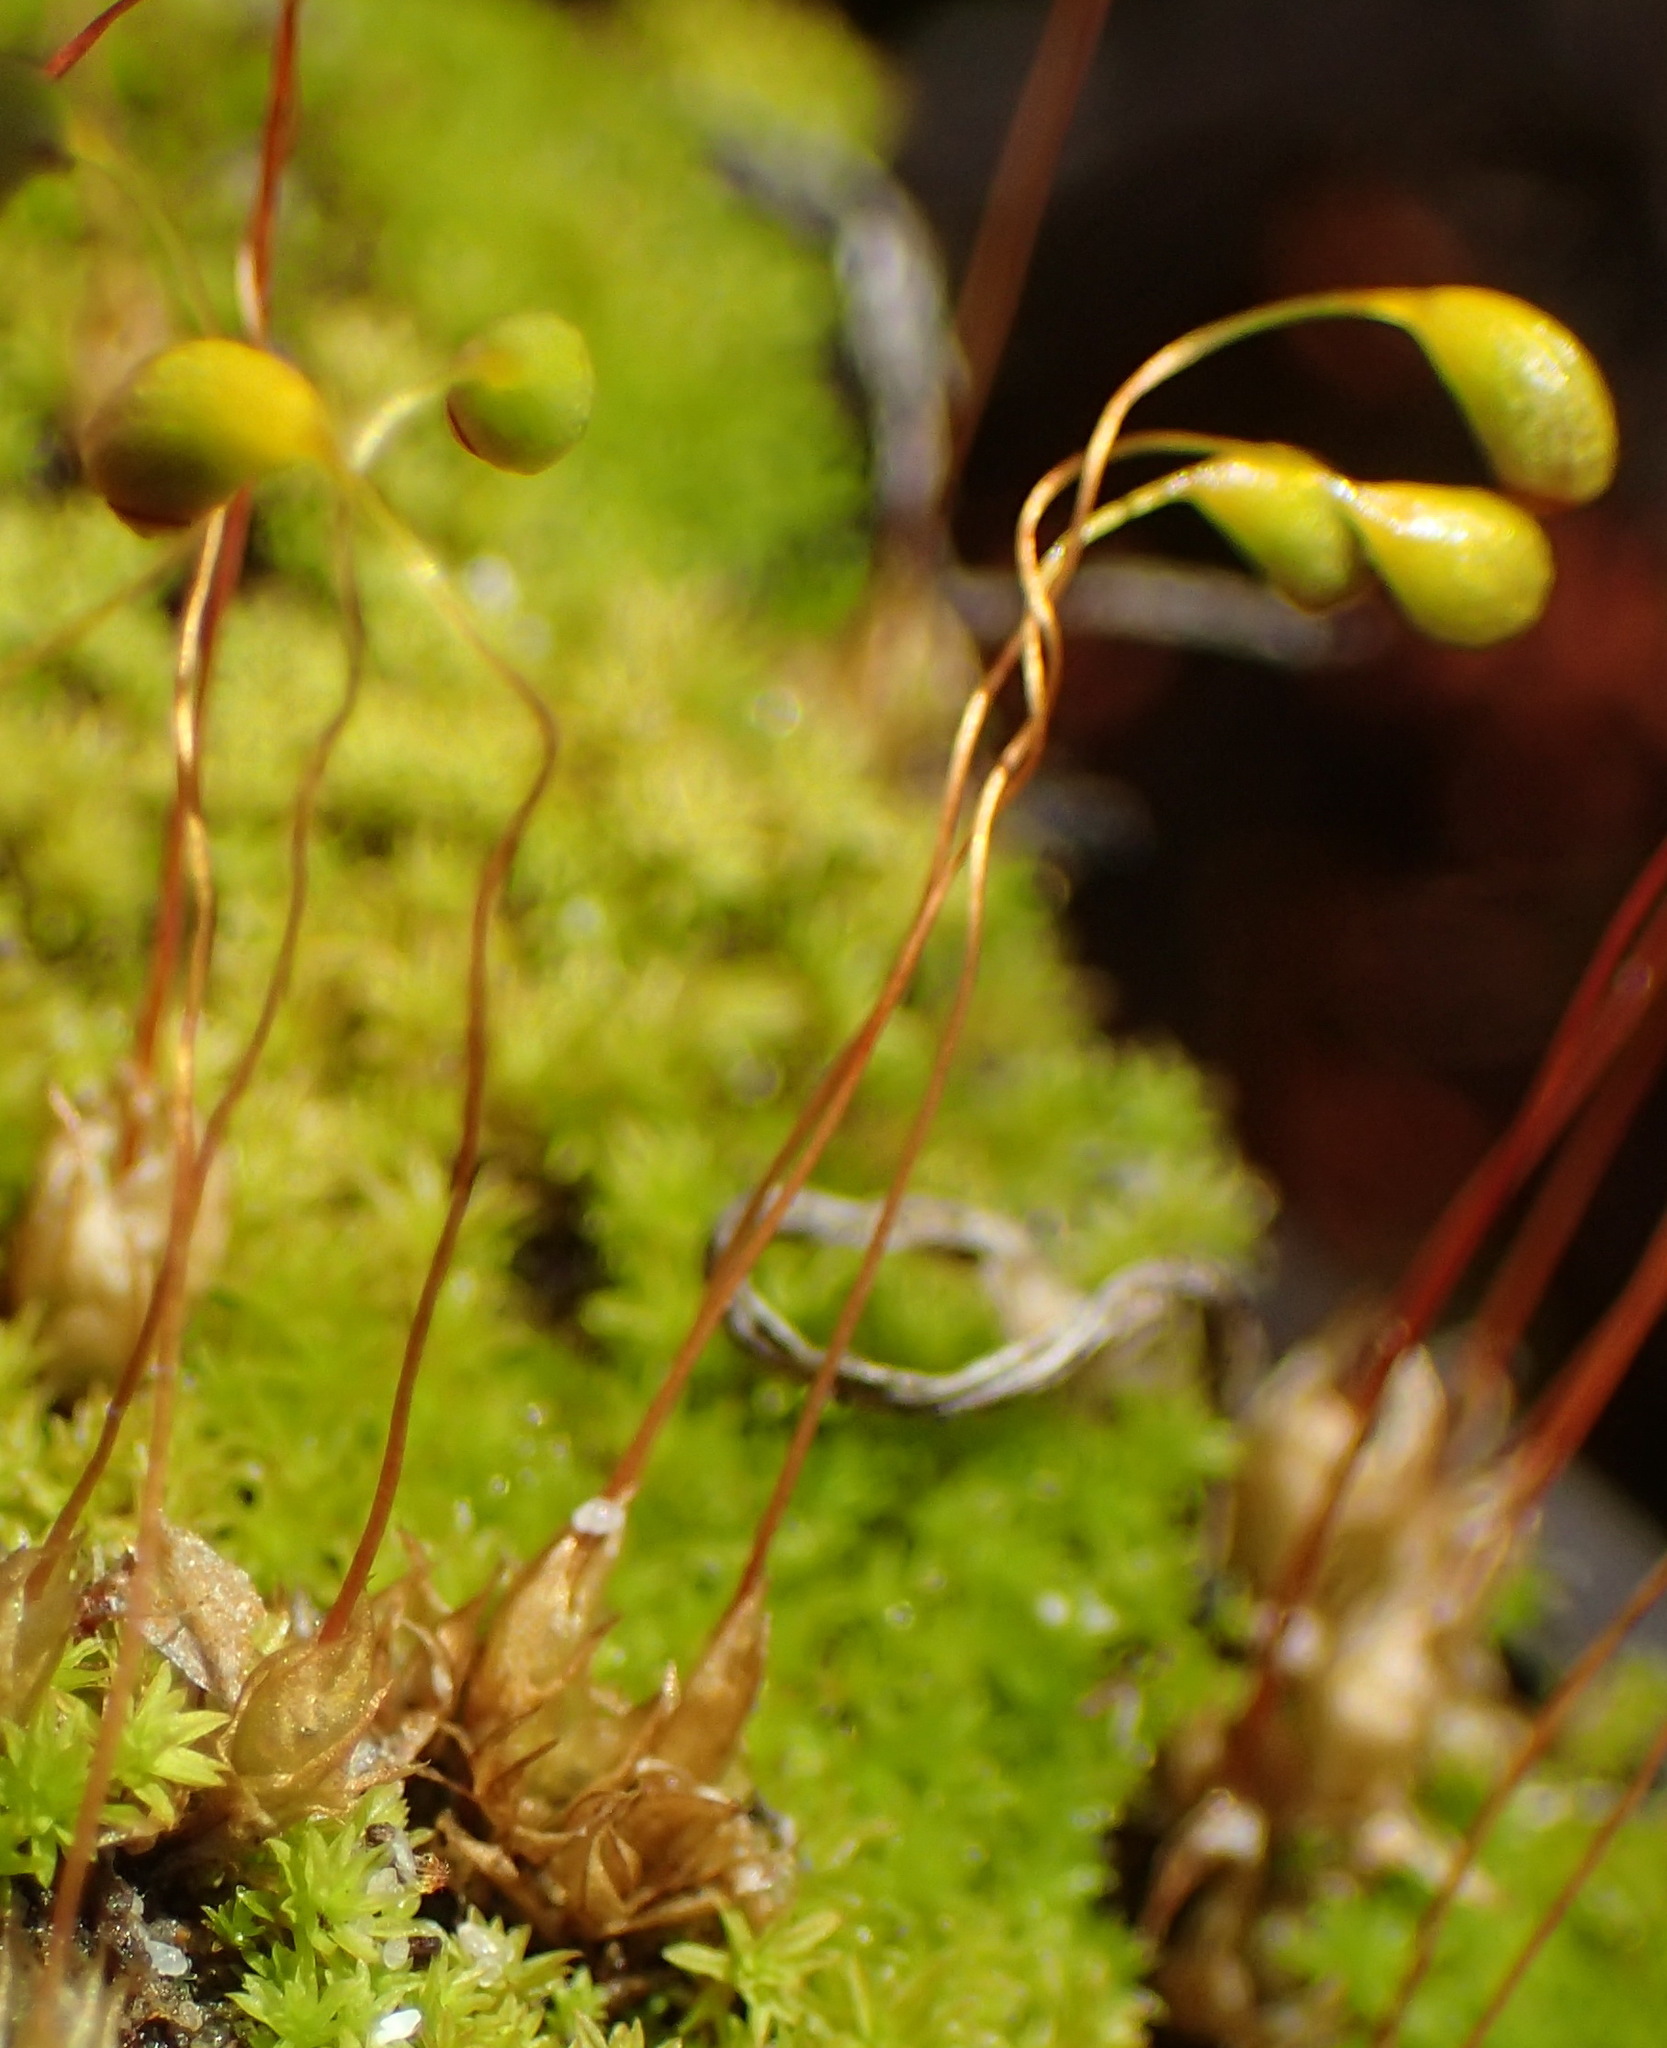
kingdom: Plantae
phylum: Bryophyta
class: Bryopsida
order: Funariales
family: Funariaceae
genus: Funaria
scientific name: Funaria hygrometrica
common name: Common cord moss
